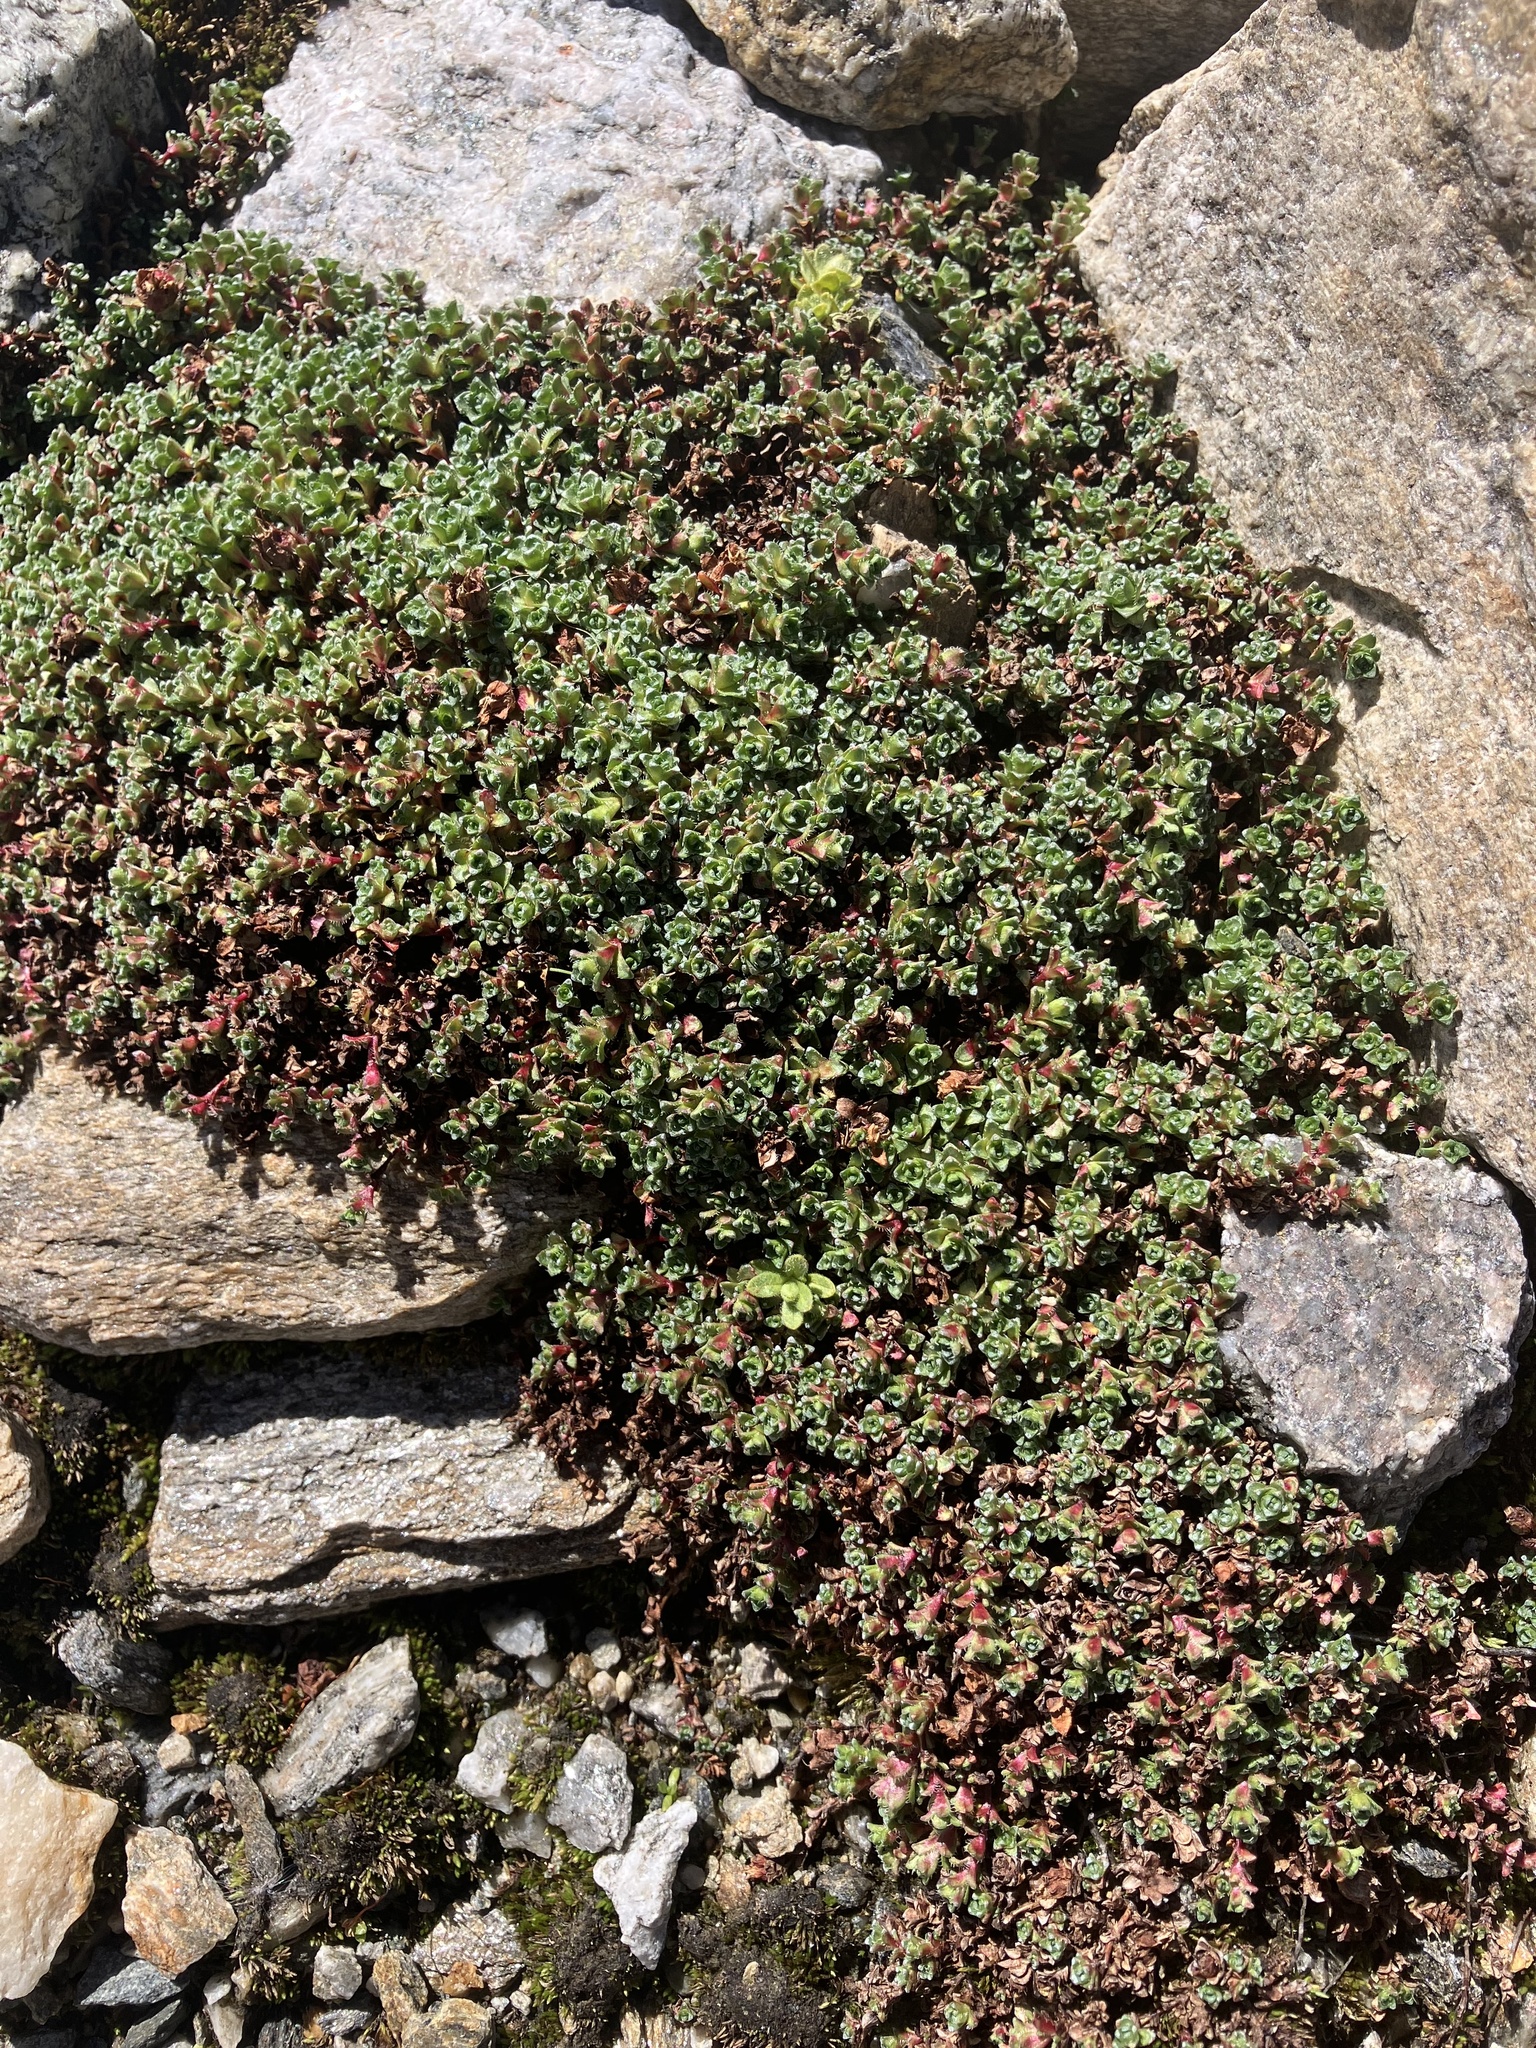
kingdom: Plantae
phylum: Tracheophyta
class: Magnoliopsida
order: Saxifragales
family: Saxifragaceae
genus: Saxifraga
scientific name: Saxifraga oppositifolia
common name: Purple saxifrage
